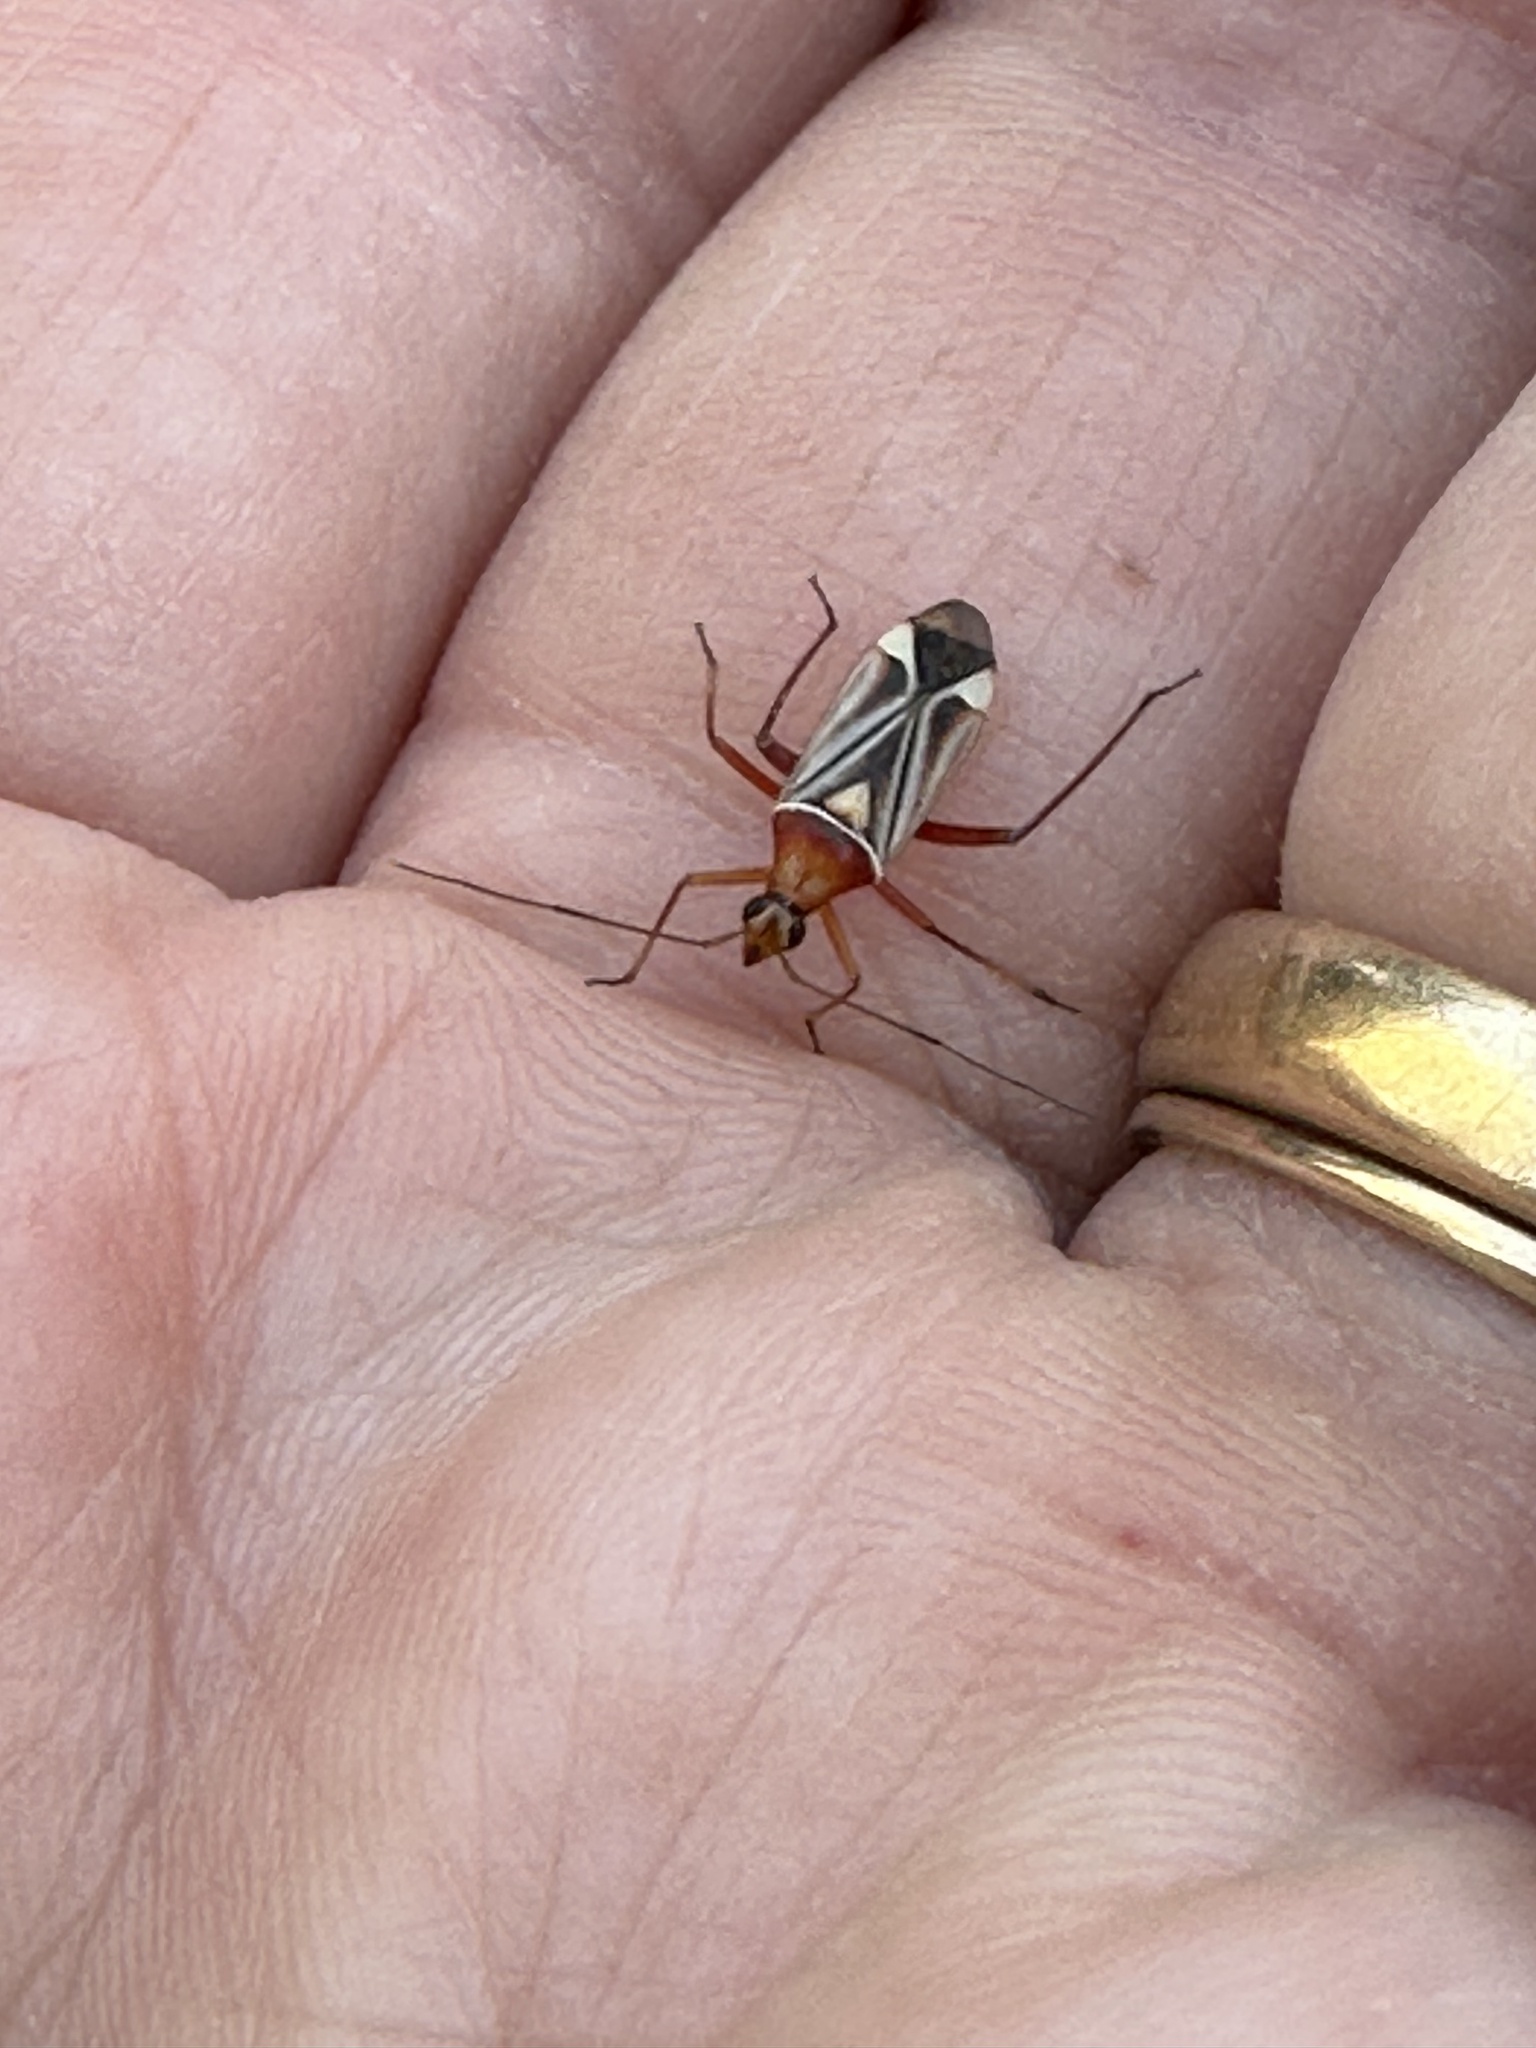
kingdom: Animalia
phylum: Arthropoda
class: Insecta
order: Hemiptera
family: Miridae
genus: Closterocoris
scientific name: Closterocoris amoenus
